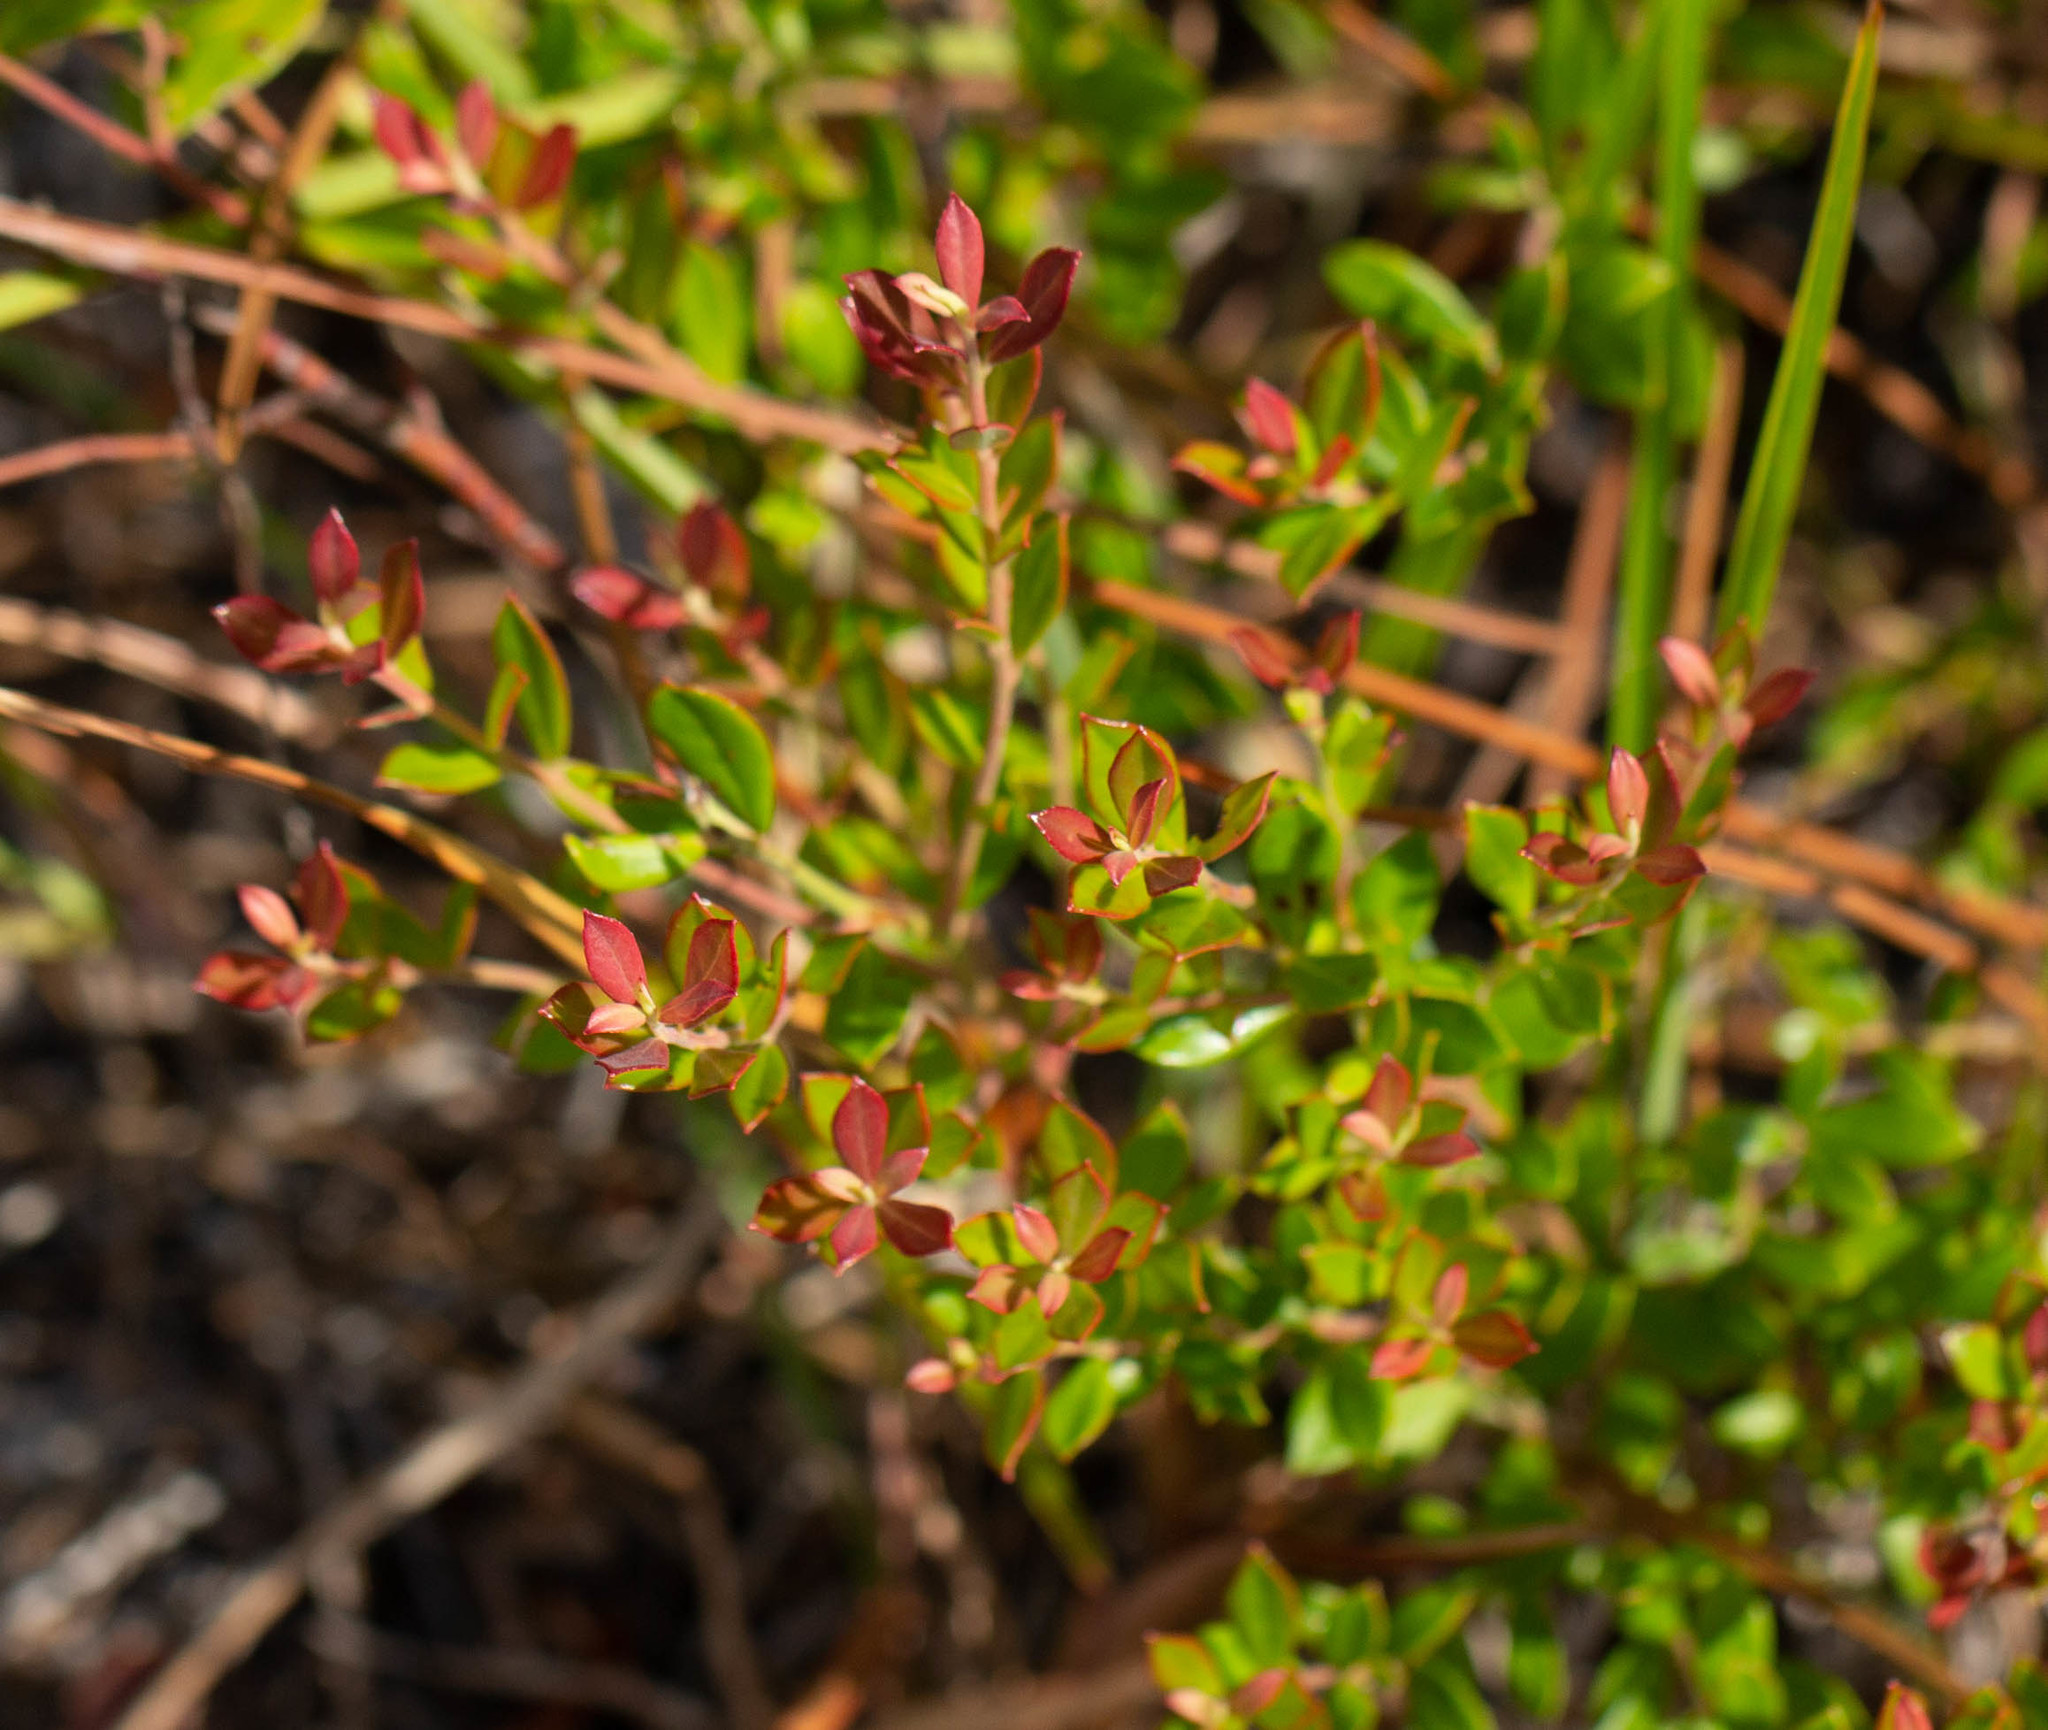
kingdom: Plantae
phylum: Tracheophyta
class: Magnoliopsida
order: Ericales
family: Ericaceae
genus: Vaccinium
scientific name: Vaccinium myrsinites
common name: Evergreen blueberry
